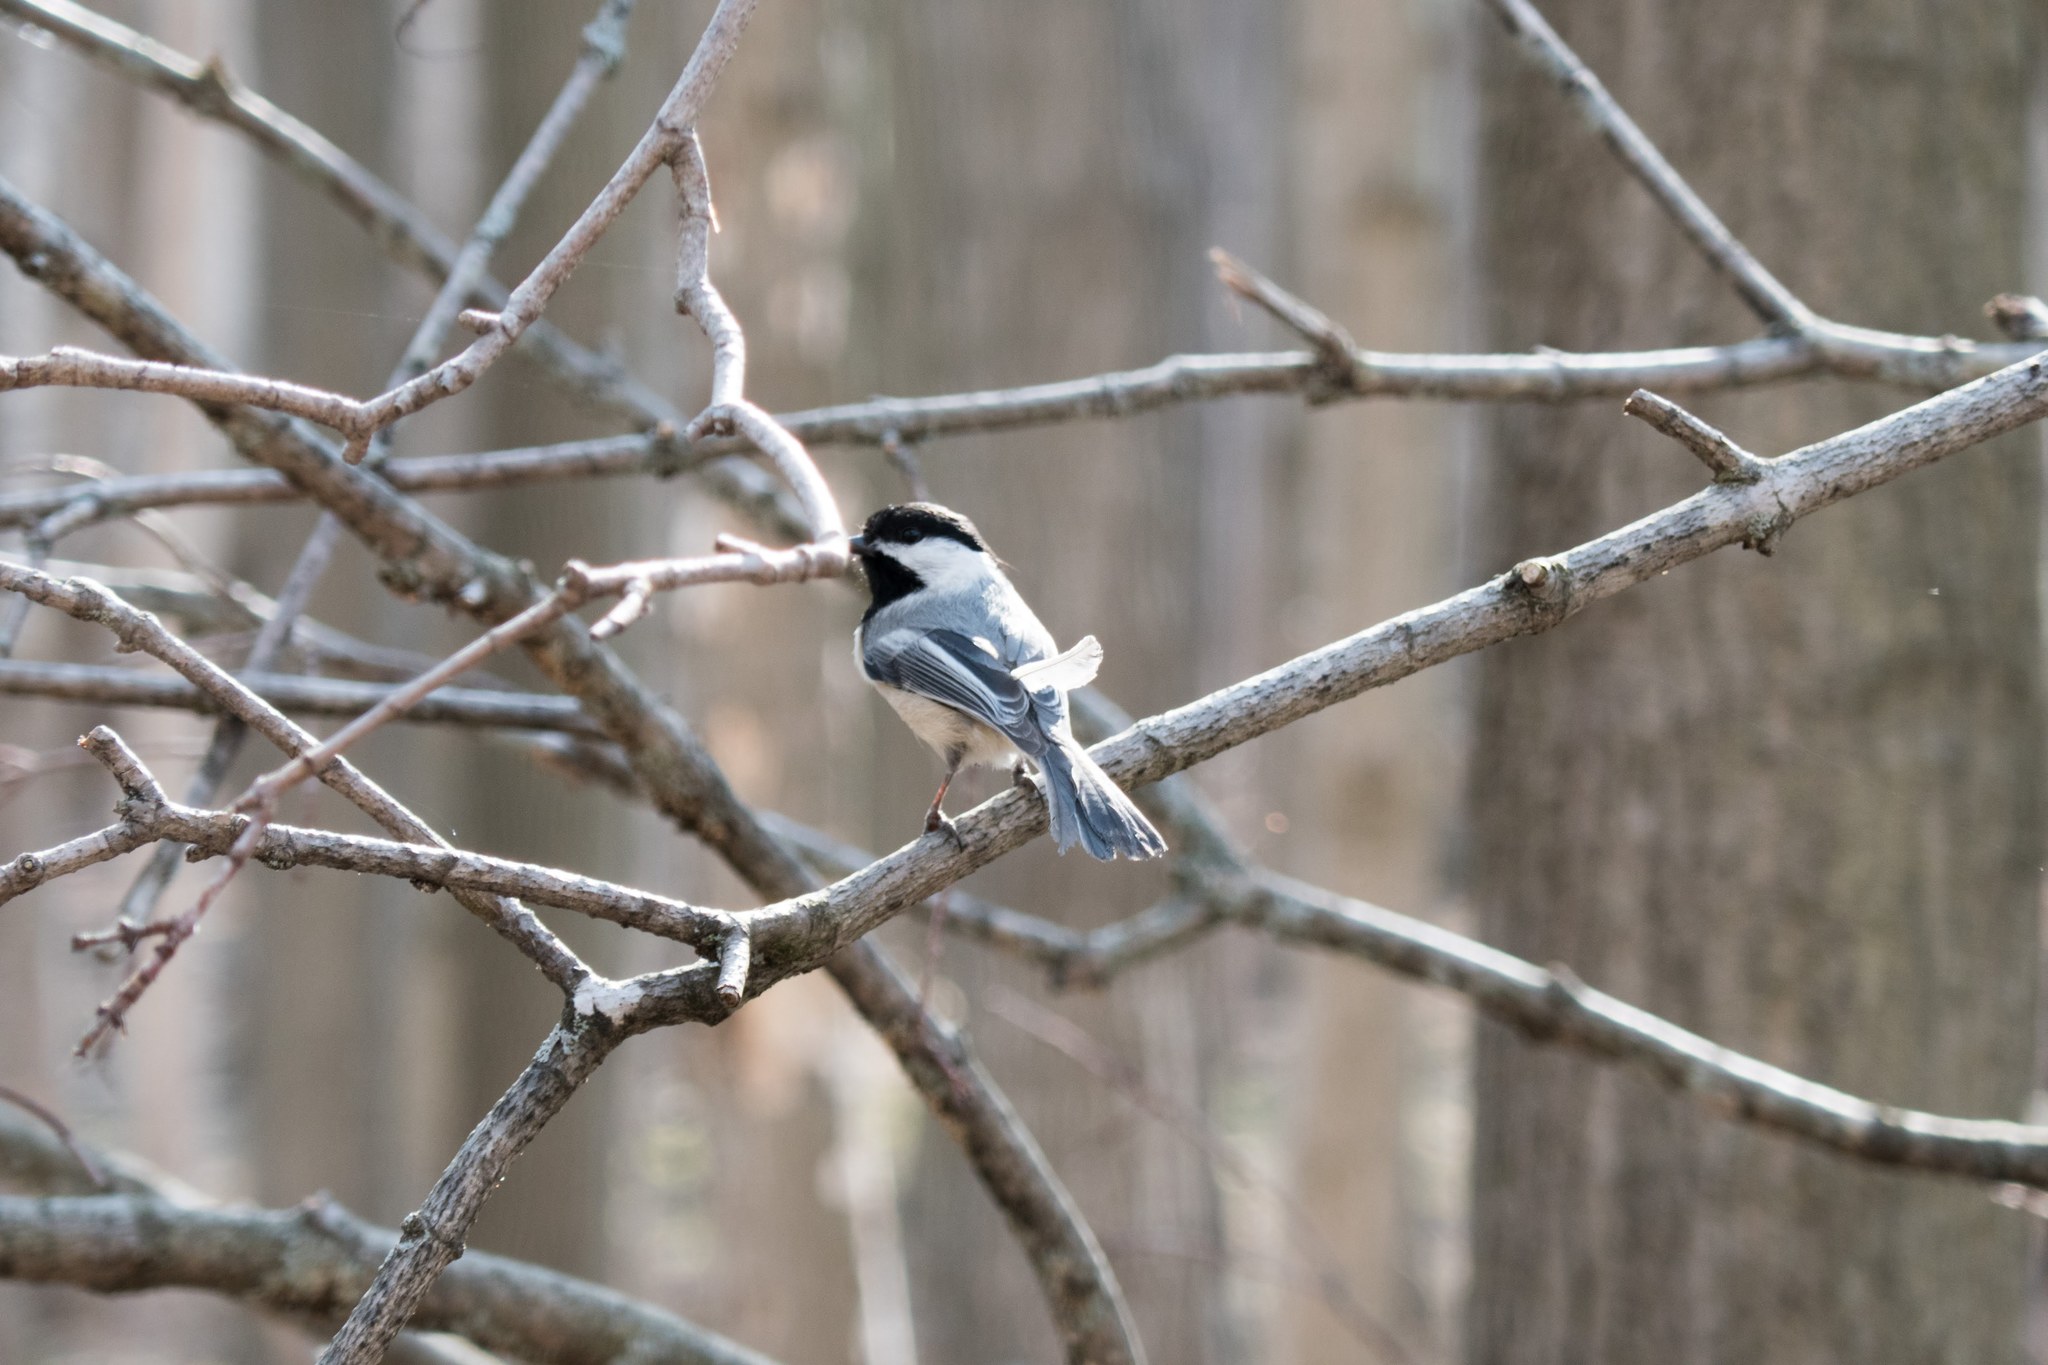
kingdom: Animalia
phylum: Chordata
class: Aves
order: Passeriformes
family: Paridae
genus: Poecile
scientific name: Poecile atricapillus
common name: Black-capped chickadee
